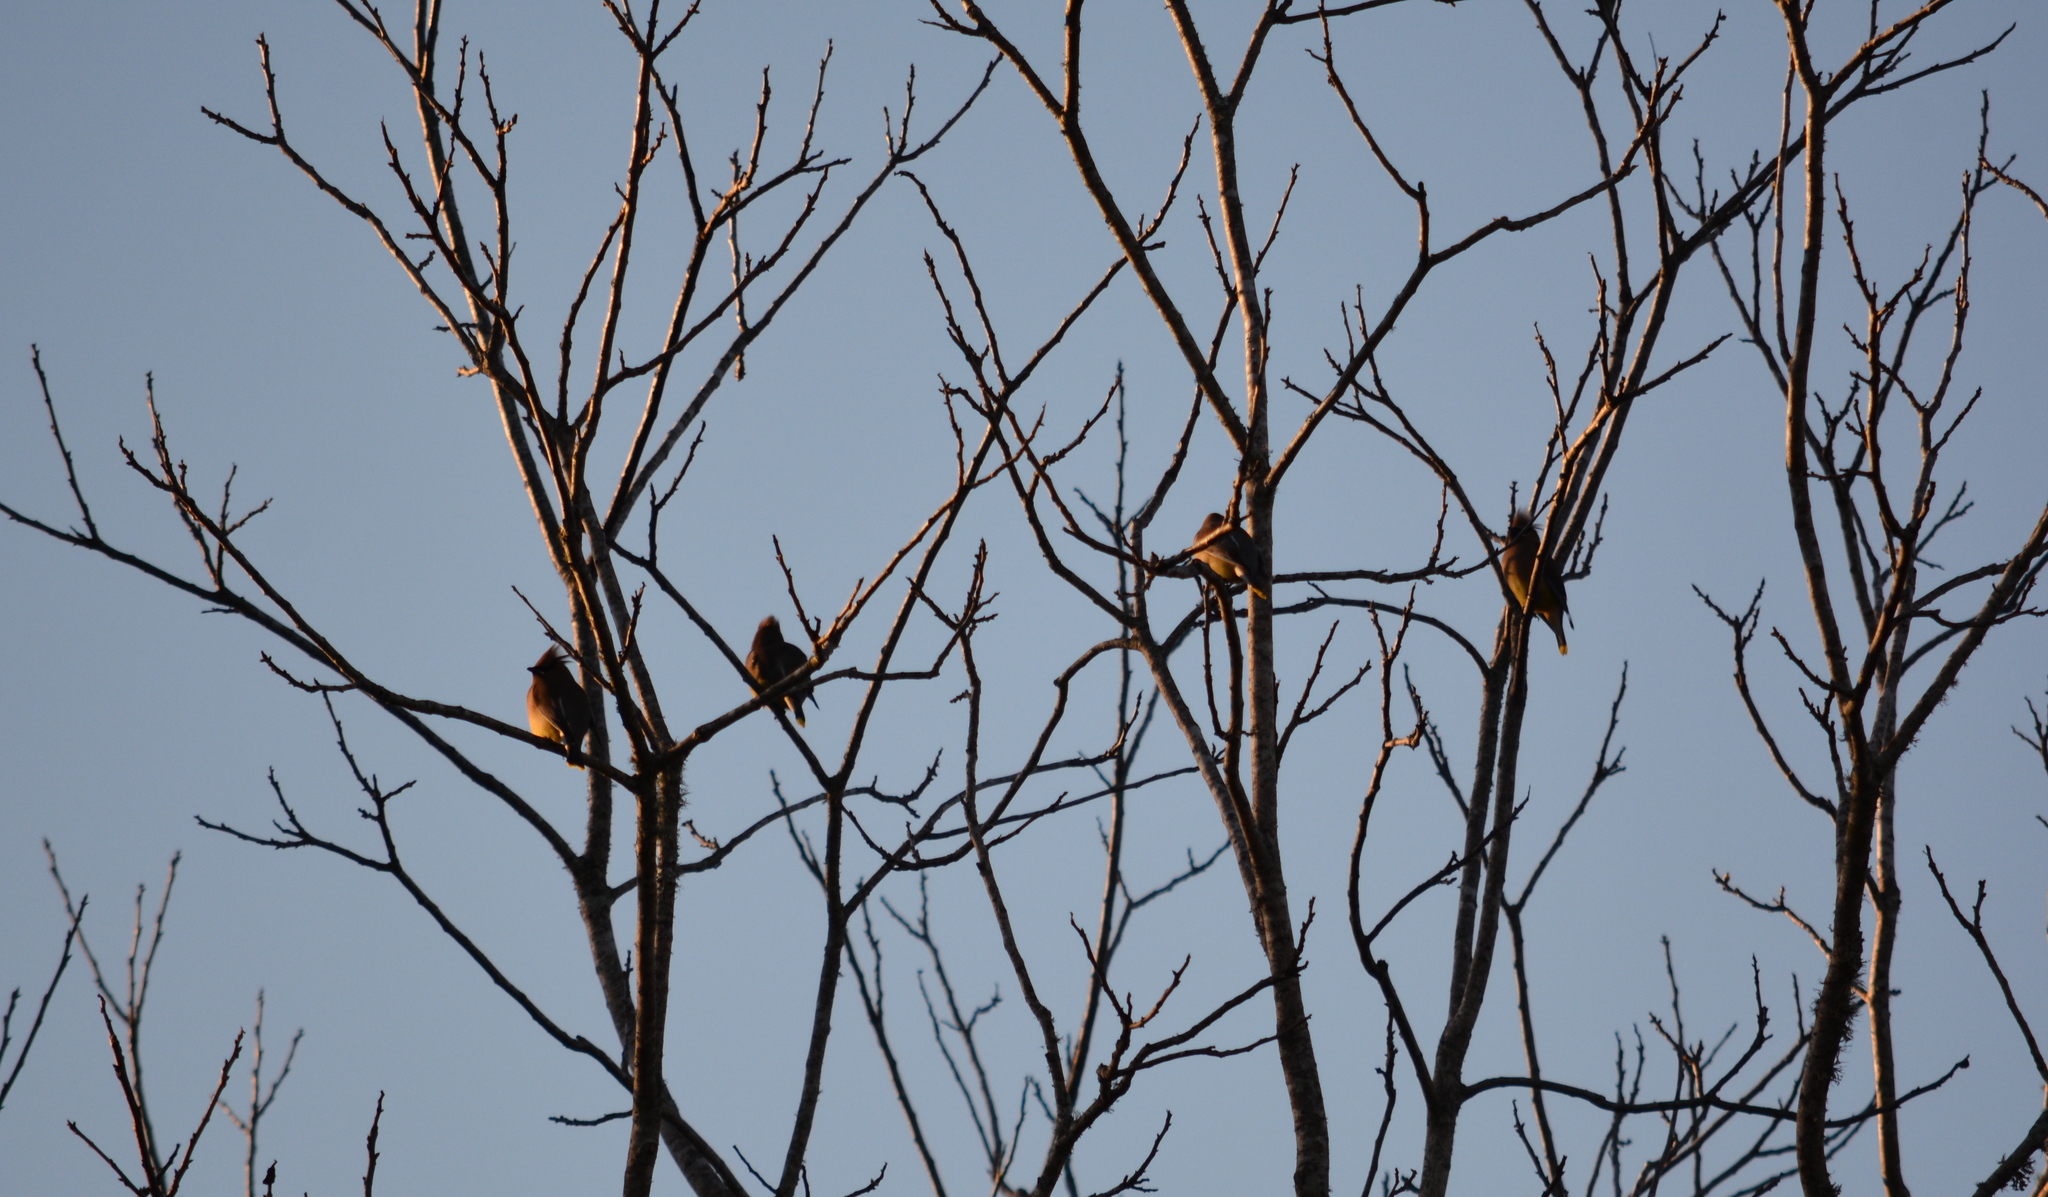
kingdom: Animalia
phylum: Chordata
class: Aves
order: Passeriformes
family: Bombycillidae
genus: Bombycilla
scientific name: Bombycilla cedrorum
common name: Cedar waxwing
